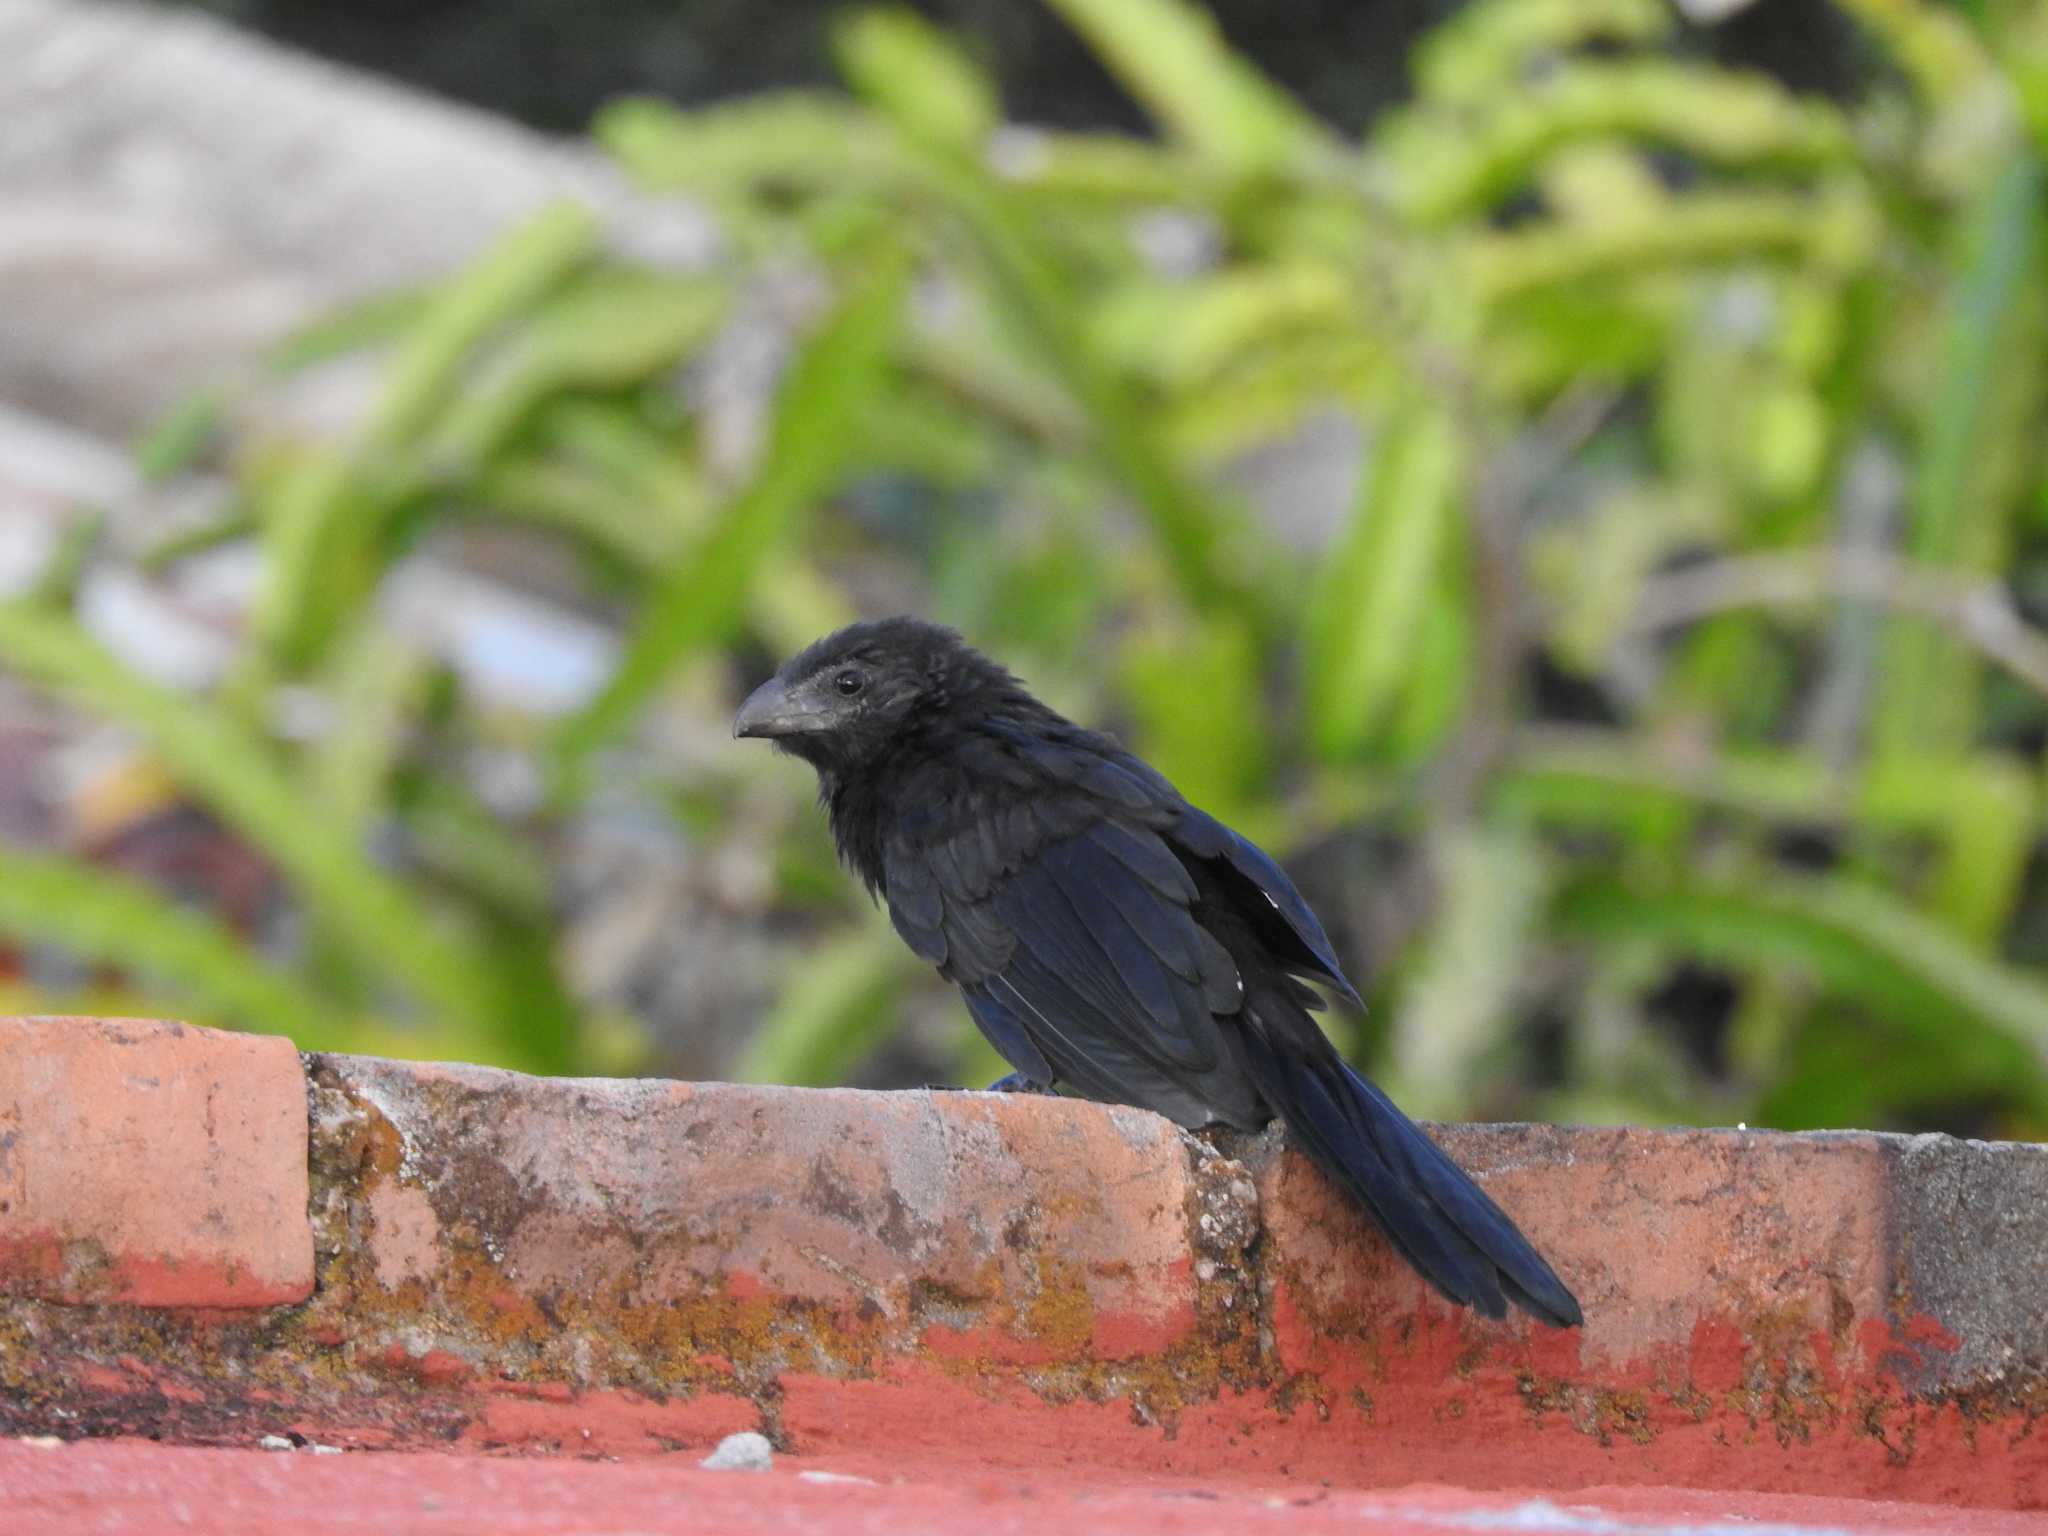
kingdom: Animalia
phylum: Chordata
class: Aves
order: Cuculiformes
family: Cuculidae
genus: Crotophaga
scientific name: Crotophaga sulcirostris
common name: Groove-billed ani
